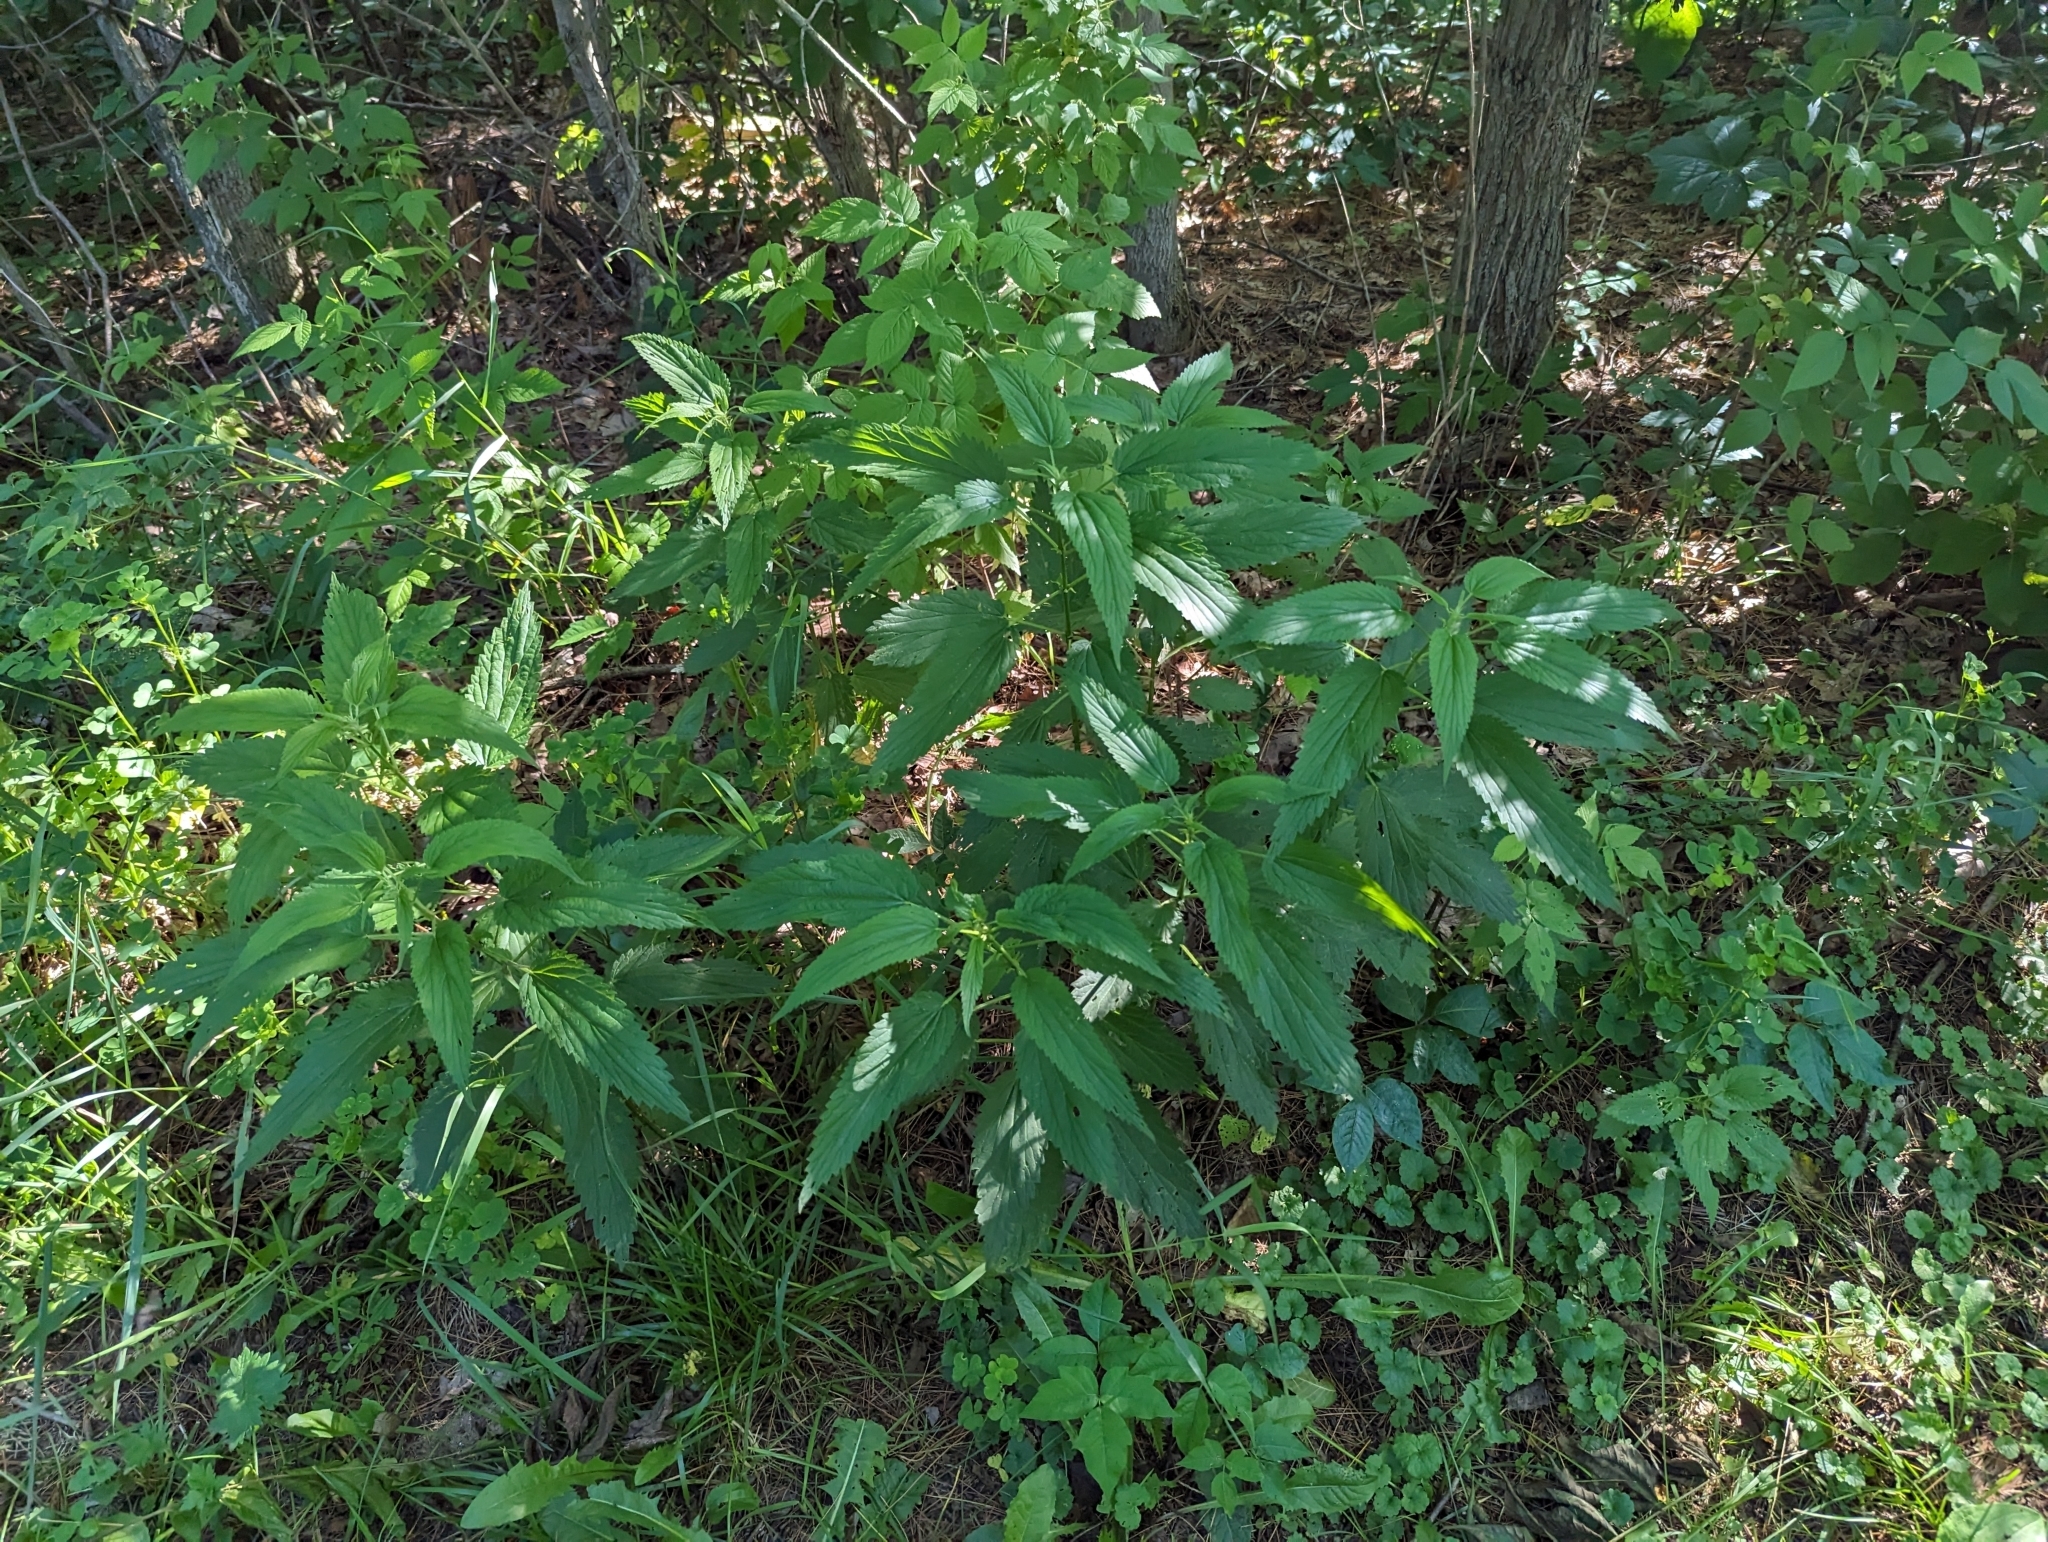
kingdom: Plantae
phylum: Tracheophyta
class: Magnoliopsida
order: Rosales
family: Urticaceae
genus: Urtica
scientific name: Urtica dioica
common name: Common nettle
